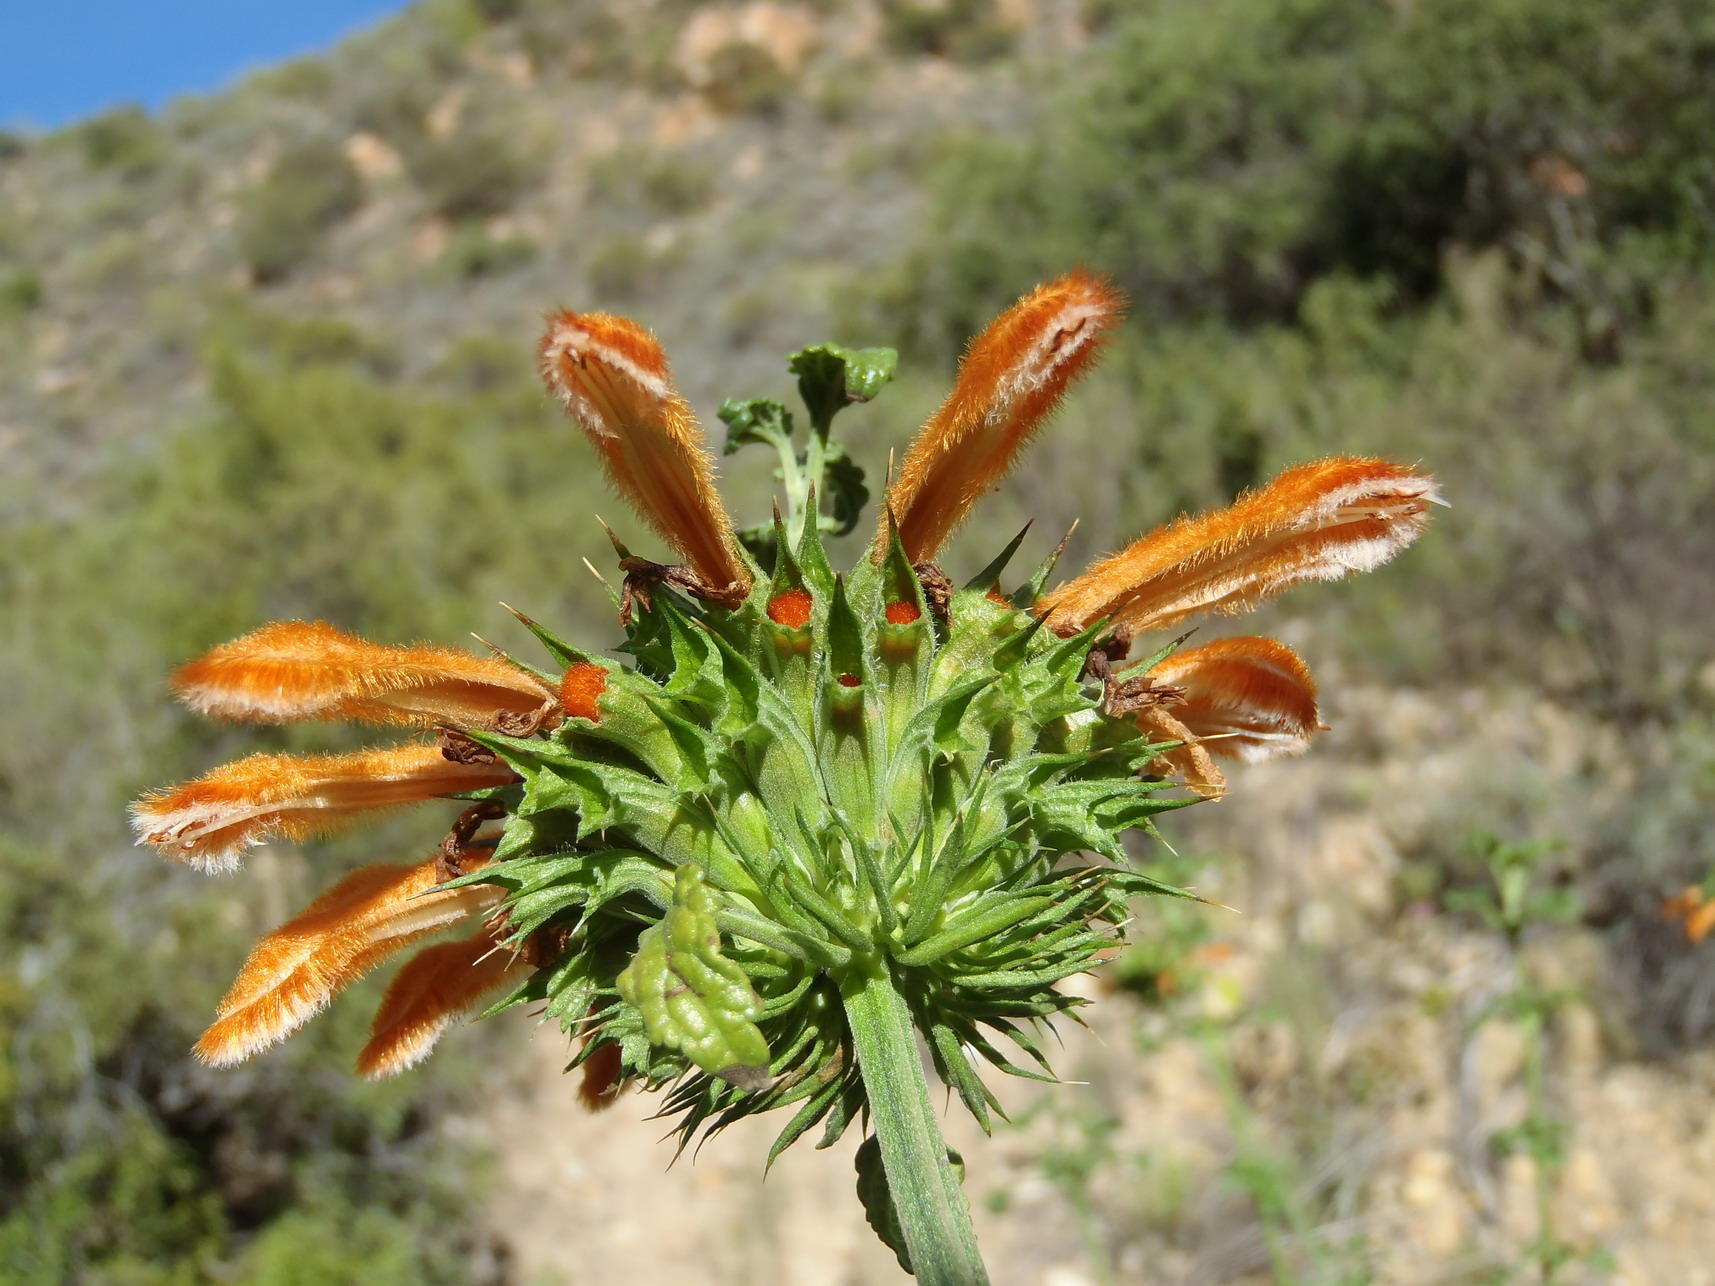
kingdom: Plantae
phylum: Tracheophyta
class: Magnoliopsida
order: Lamiales
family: Lamiaceae
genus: Leonotis
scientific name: Leonotis ocymifolia
